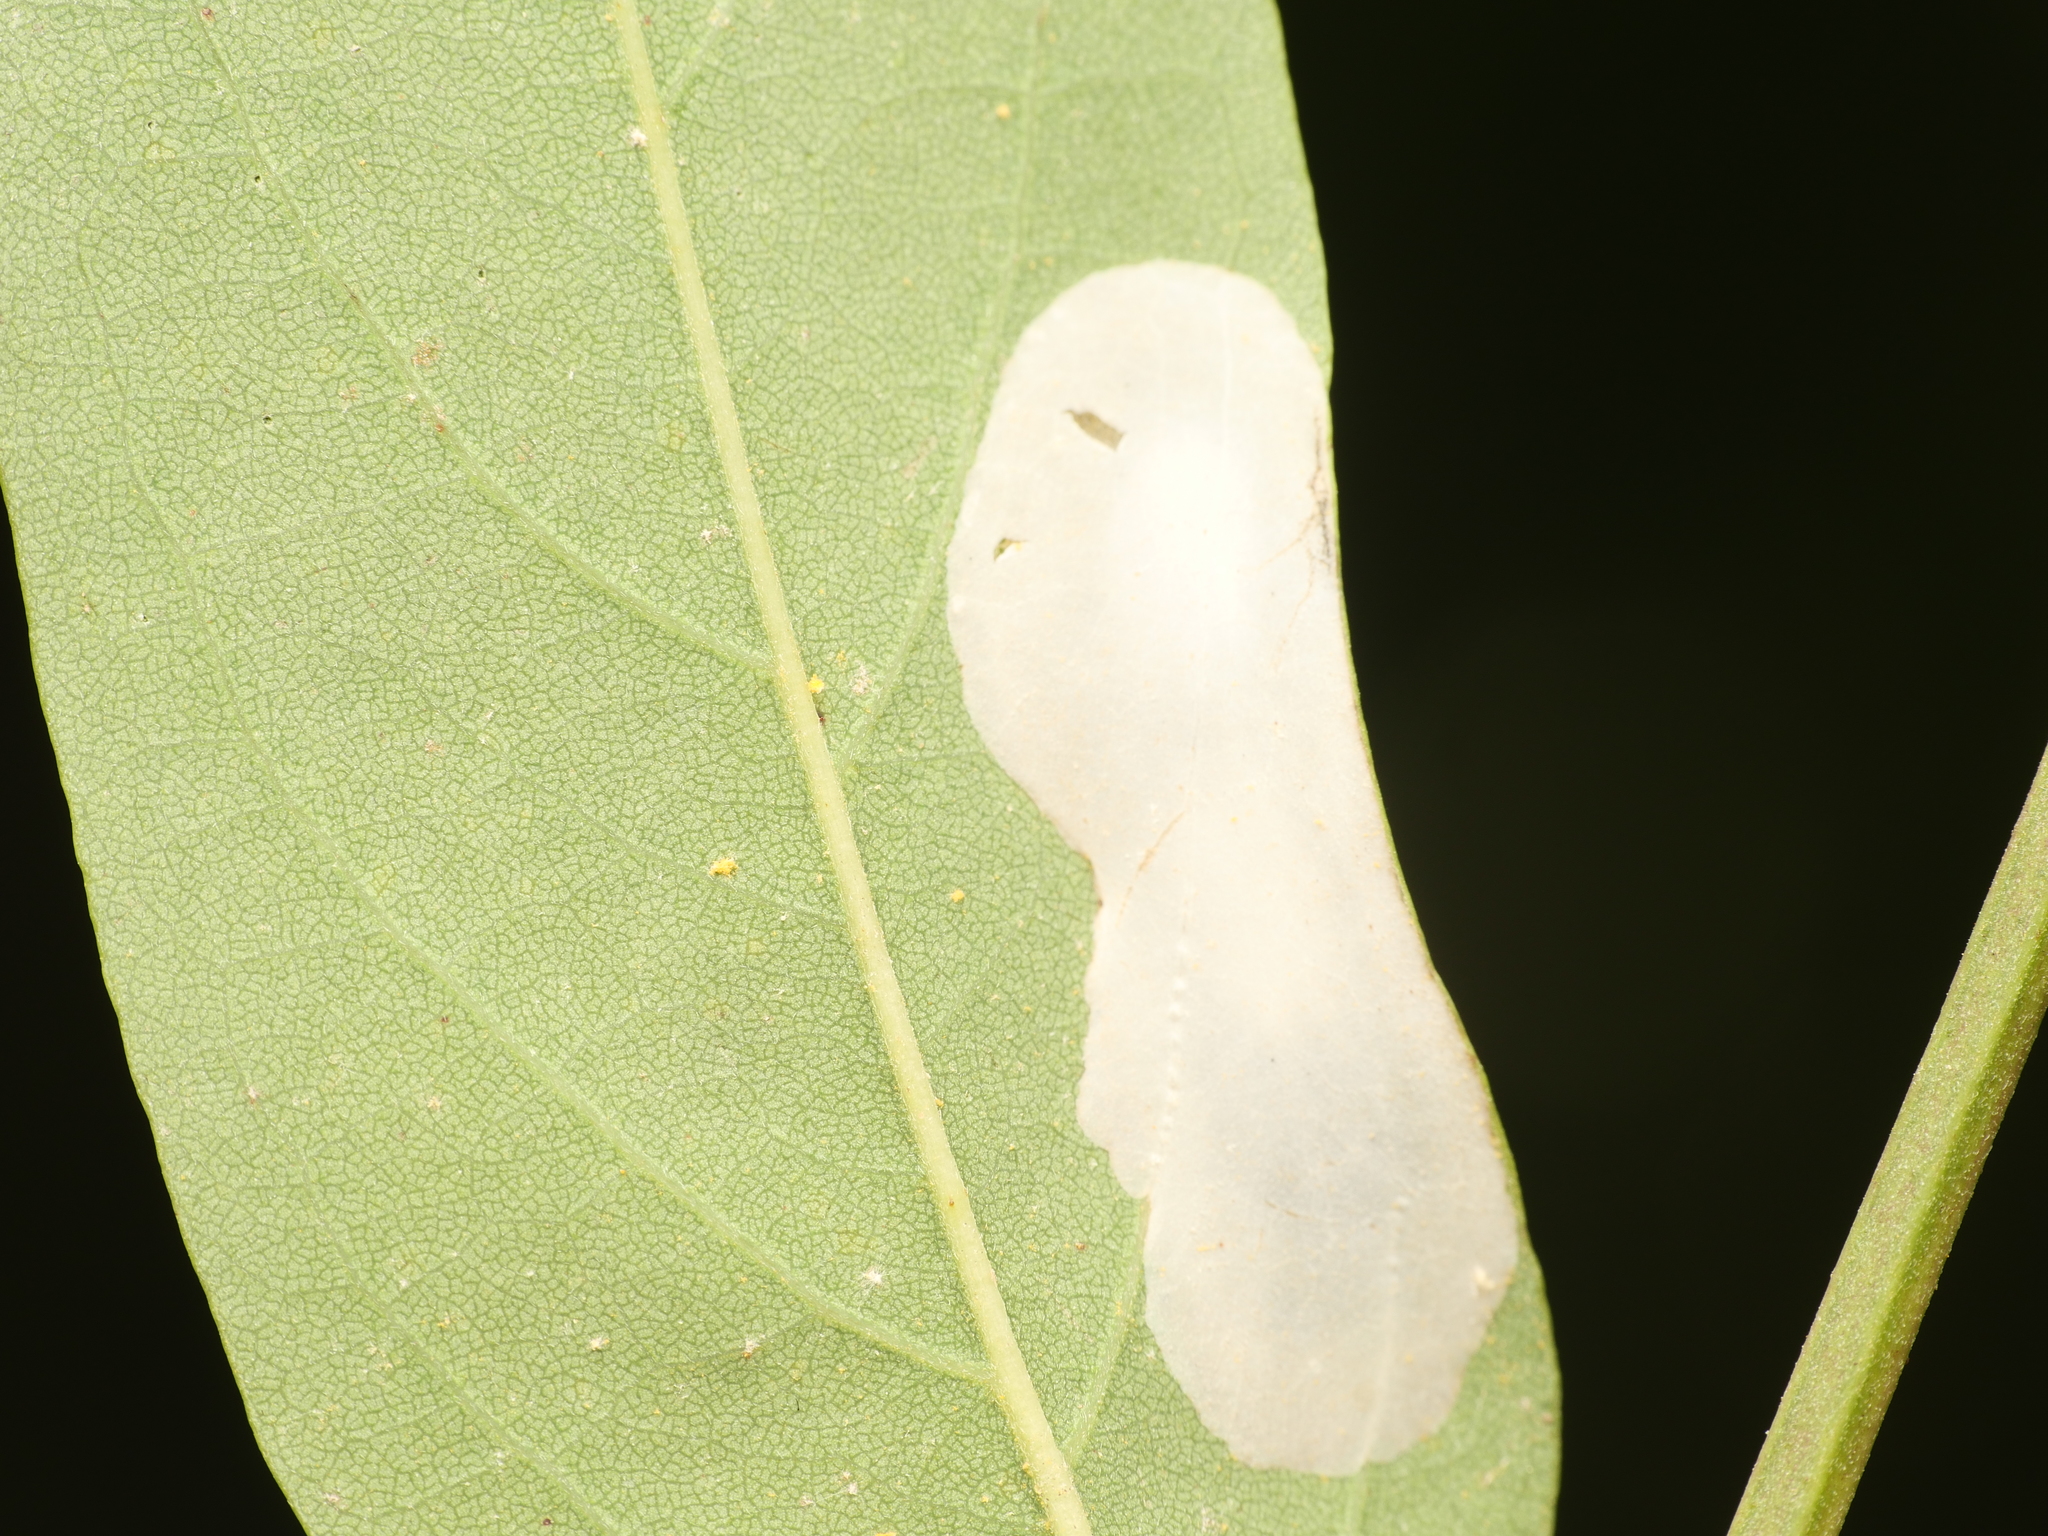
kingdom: Animalia
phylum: Arthropoda
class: Insecta
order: Lepidoptera
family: Gracillariidae
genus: Macrosaccus
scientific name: Macrosaccus robiniella
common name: Leaf blotch miner moth
